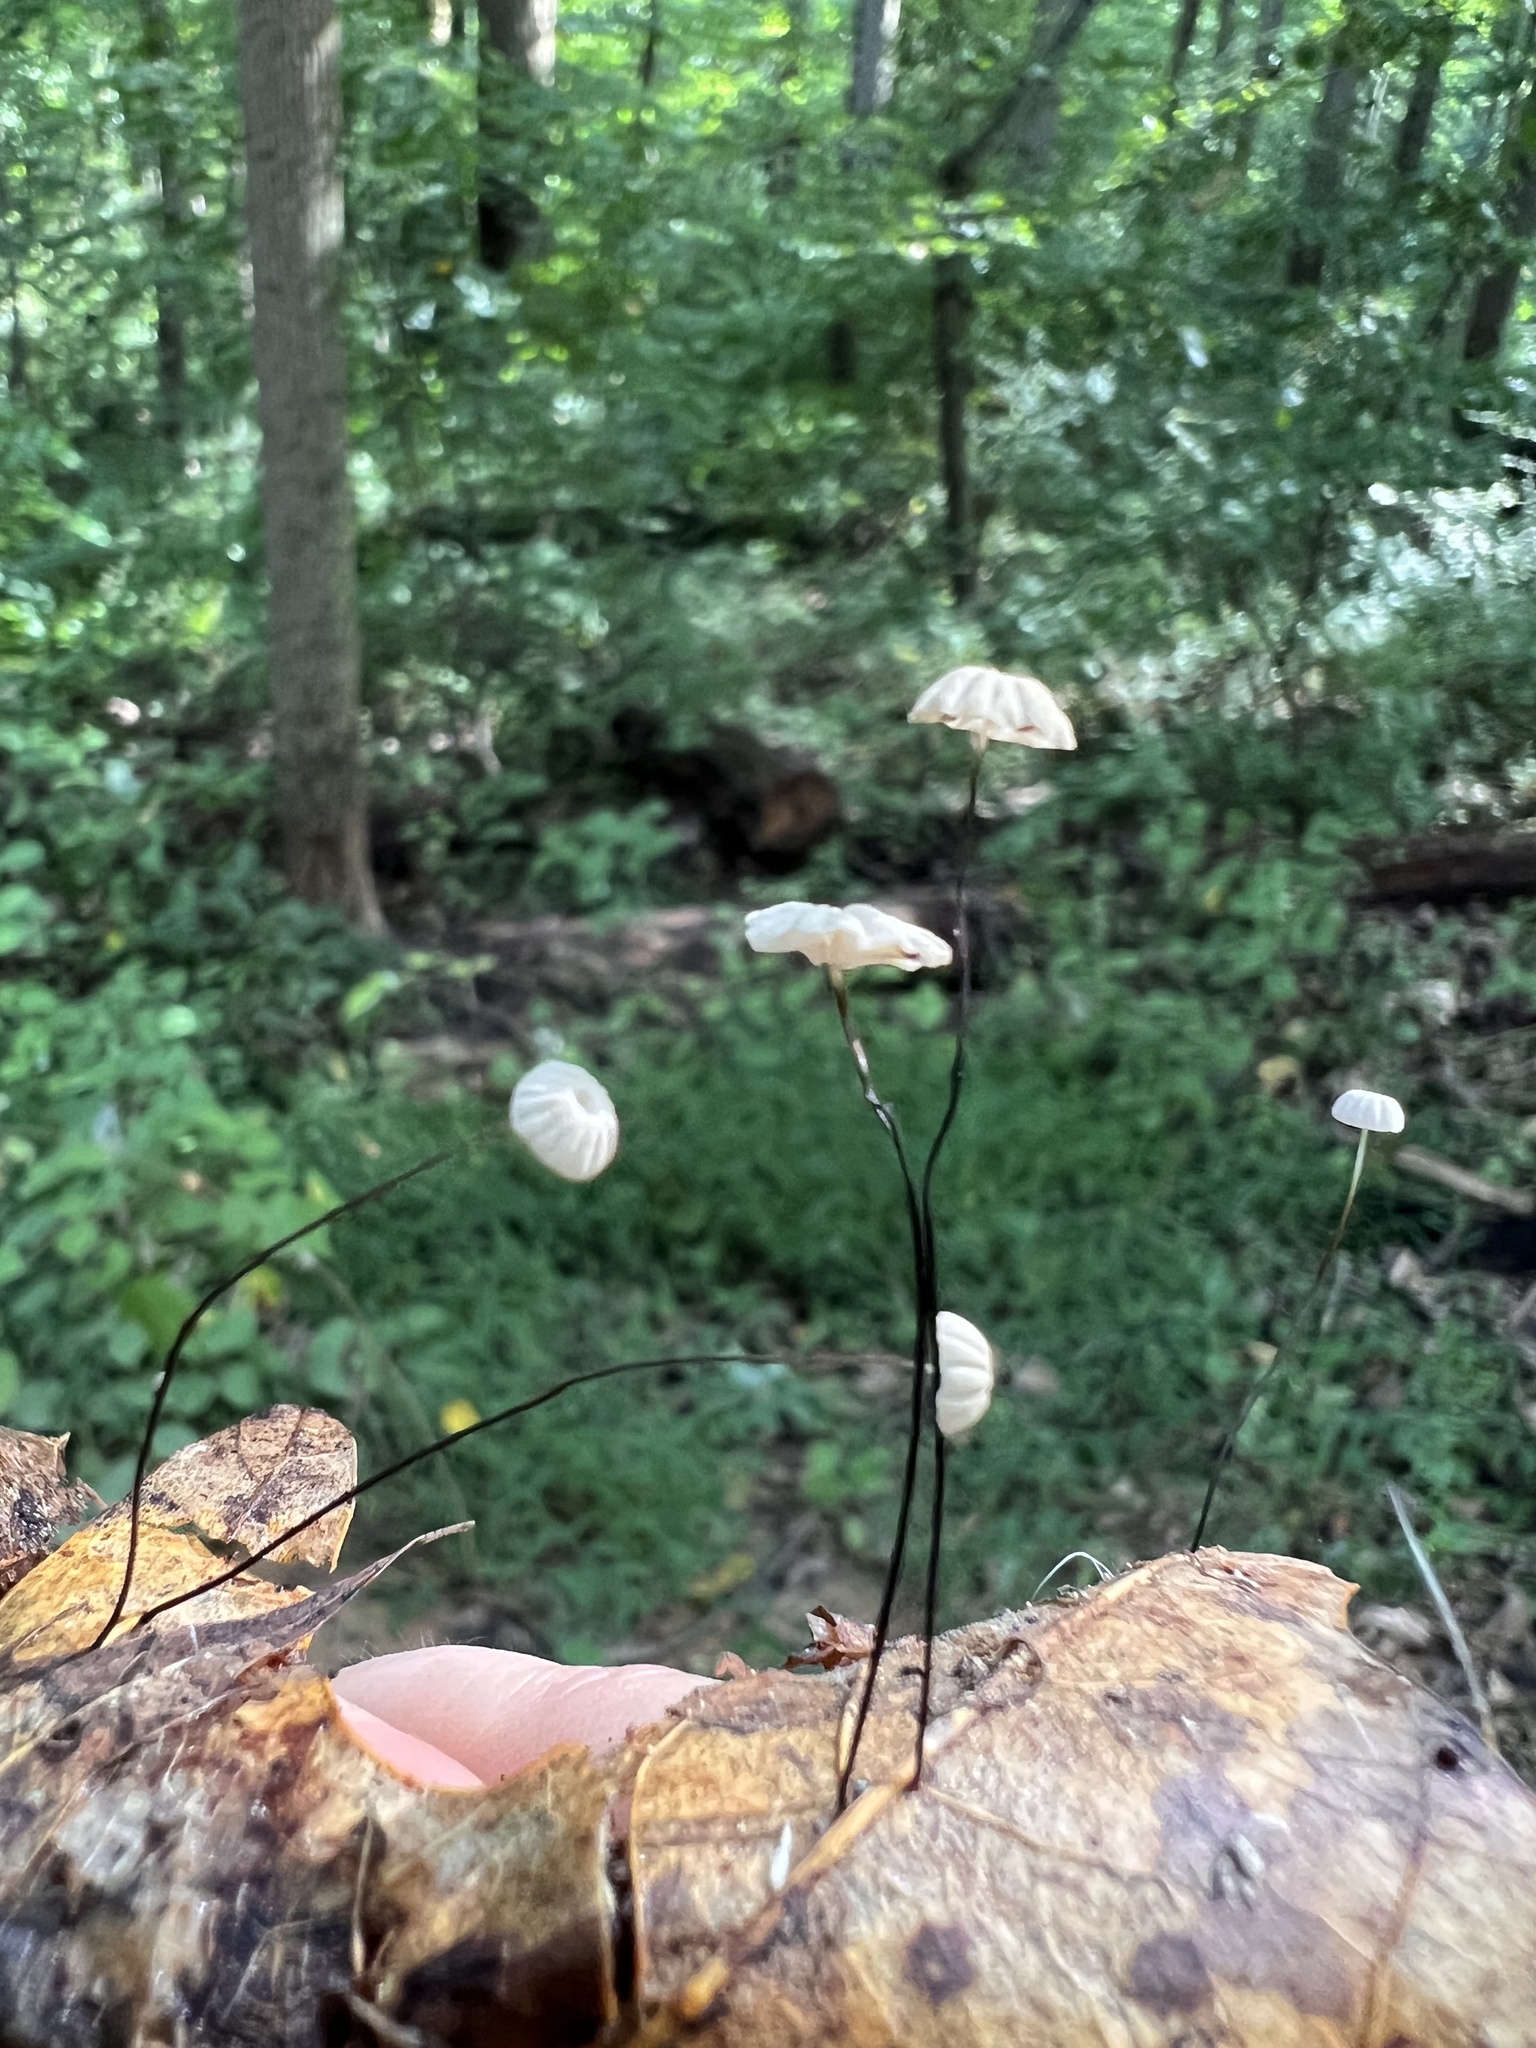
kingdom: Fungi
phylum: Basidiomycota
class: Agaricomycetes
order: Agaricales
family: Marasmiaceae
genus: Marasmius
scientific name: Marasmius capillaris
